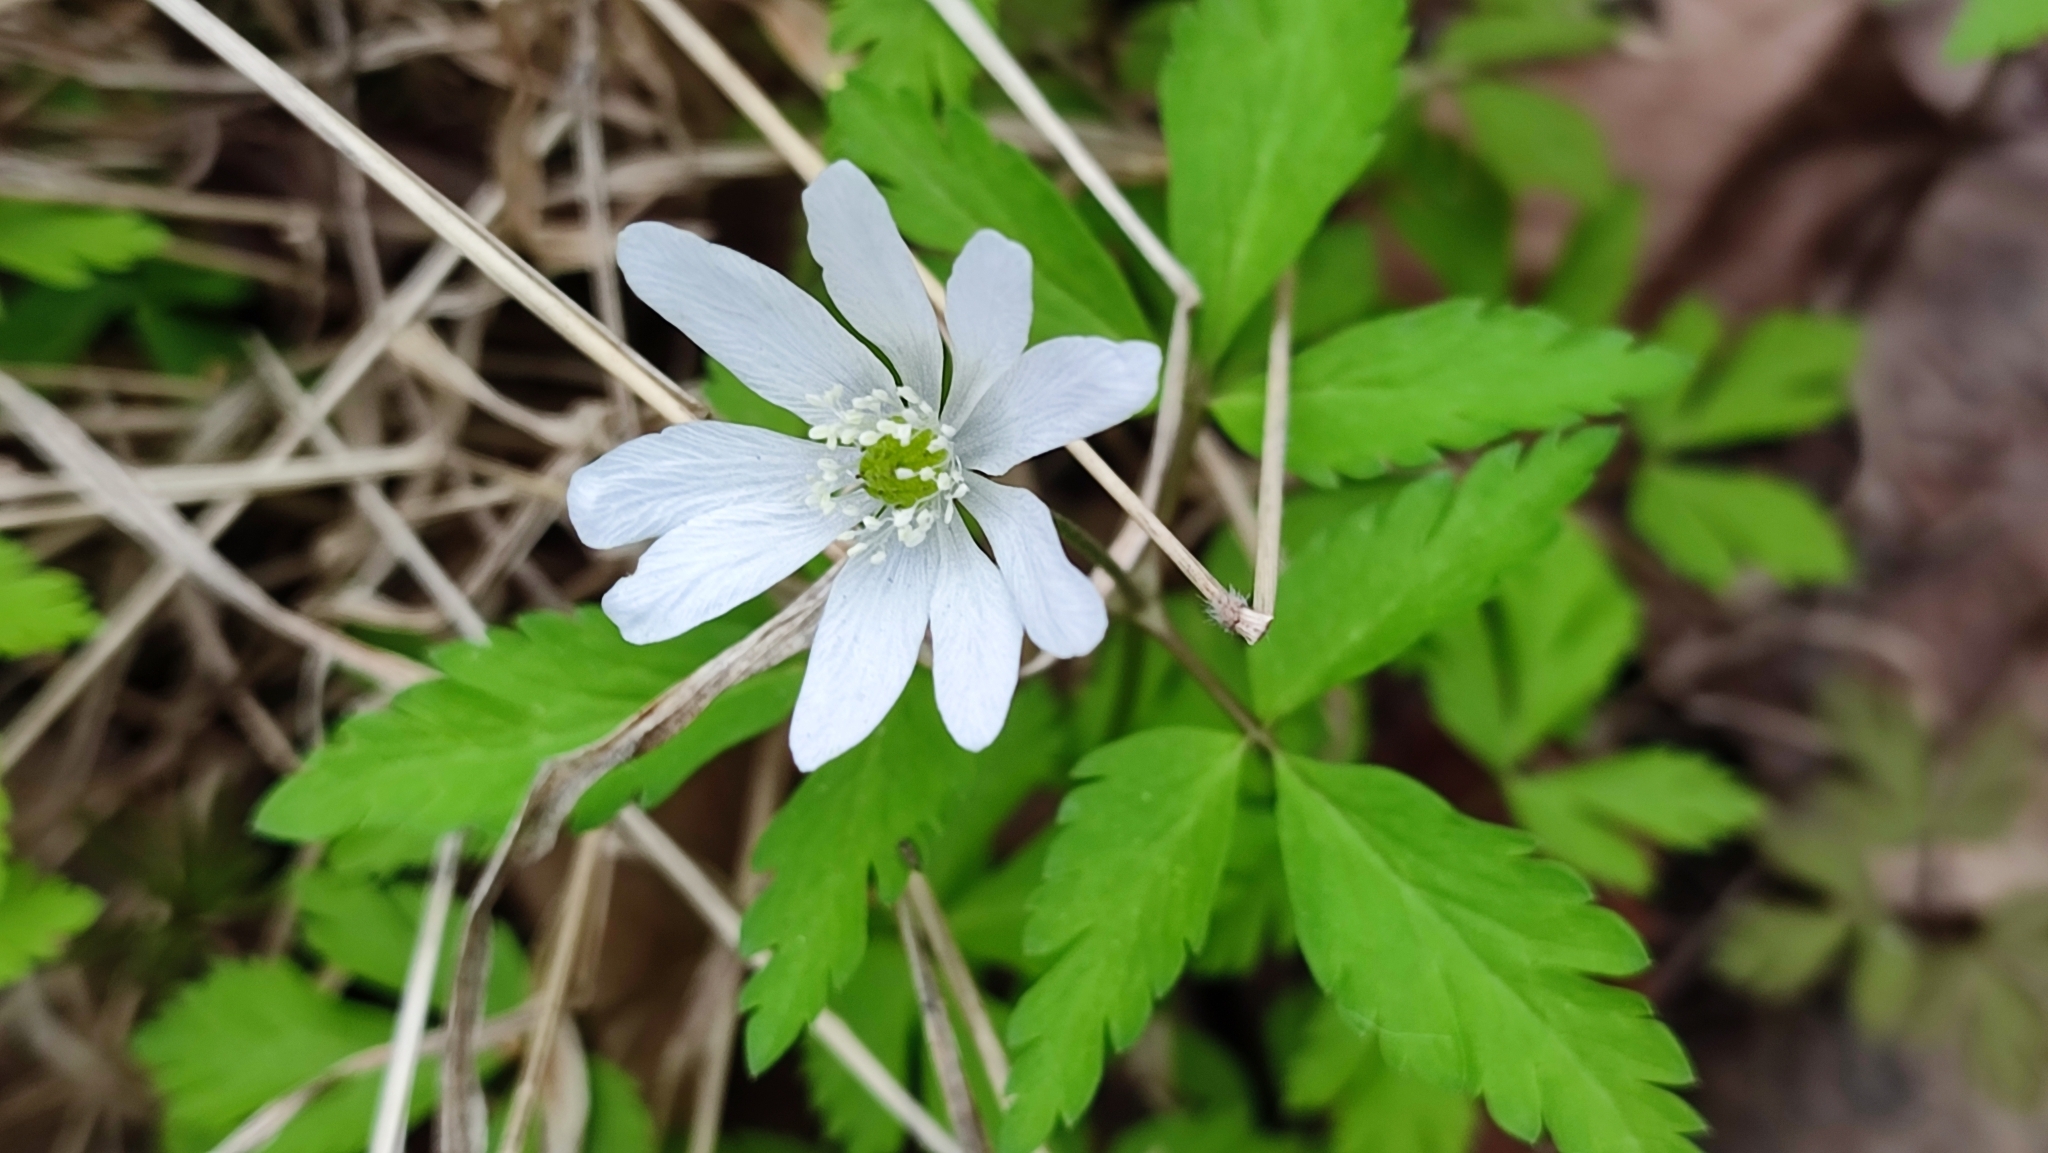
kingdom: Plantae
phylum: Tracheophyta
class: Magnoliopsida
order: Ranunculales
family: Ranunculaceae
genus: Anemone
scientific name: Anemone altaica
